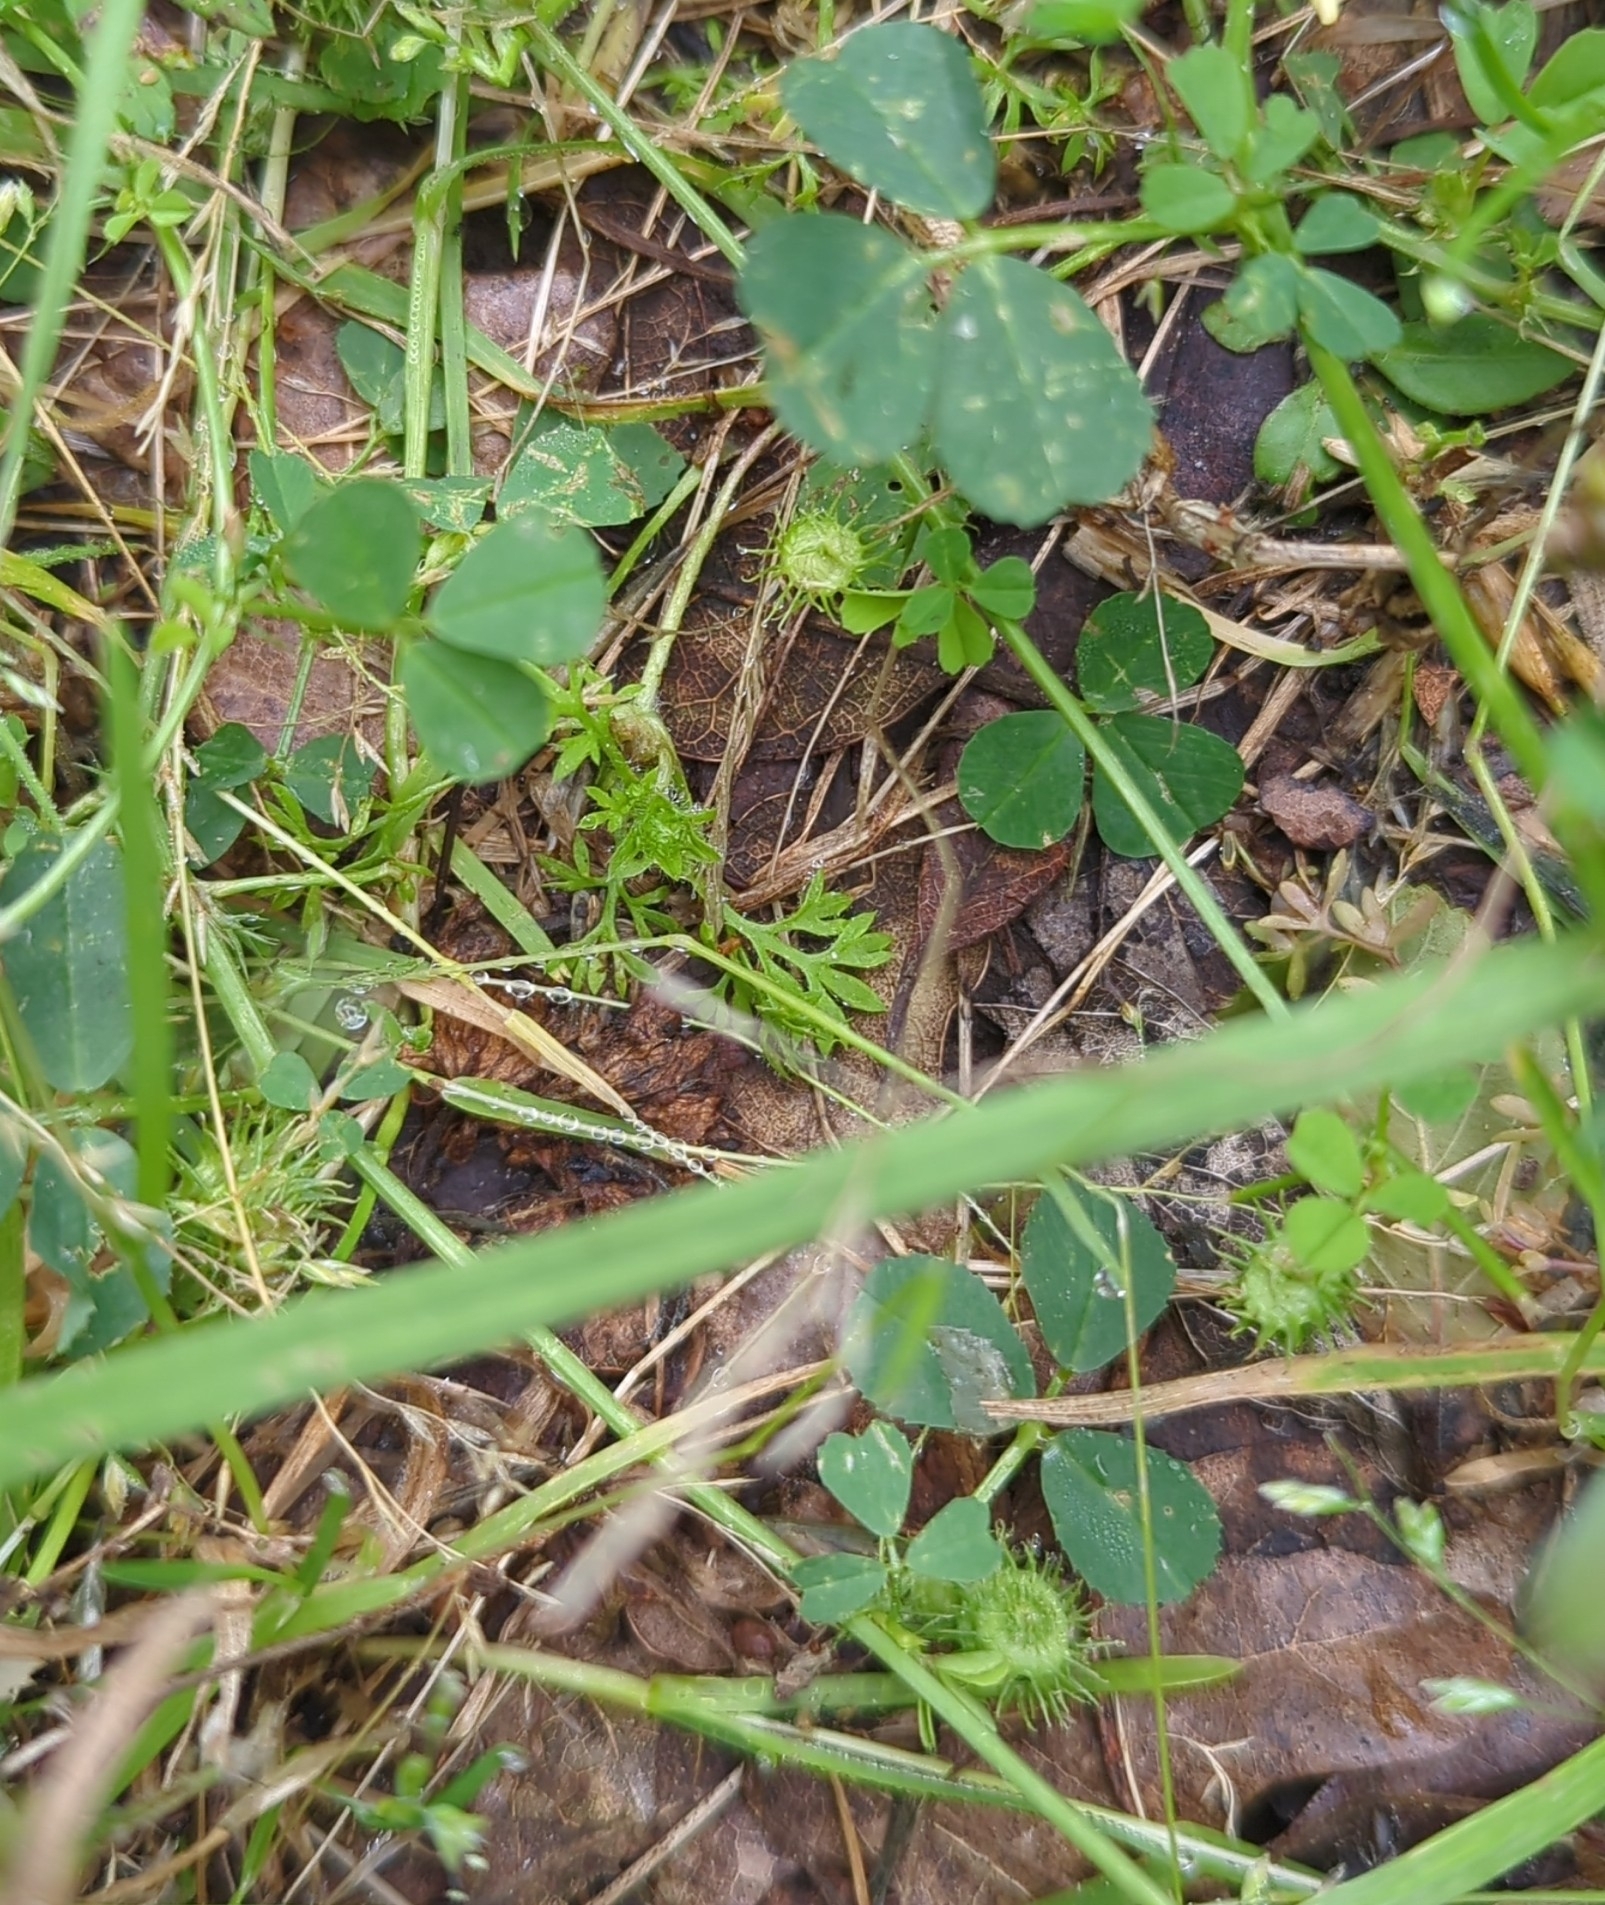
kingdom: Plantae
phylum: Tracheophyta
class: Magnoliopsida
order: Fabales
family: Fabaceae
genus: Medicago
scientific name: Medicago minima
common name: Little bur-clover
